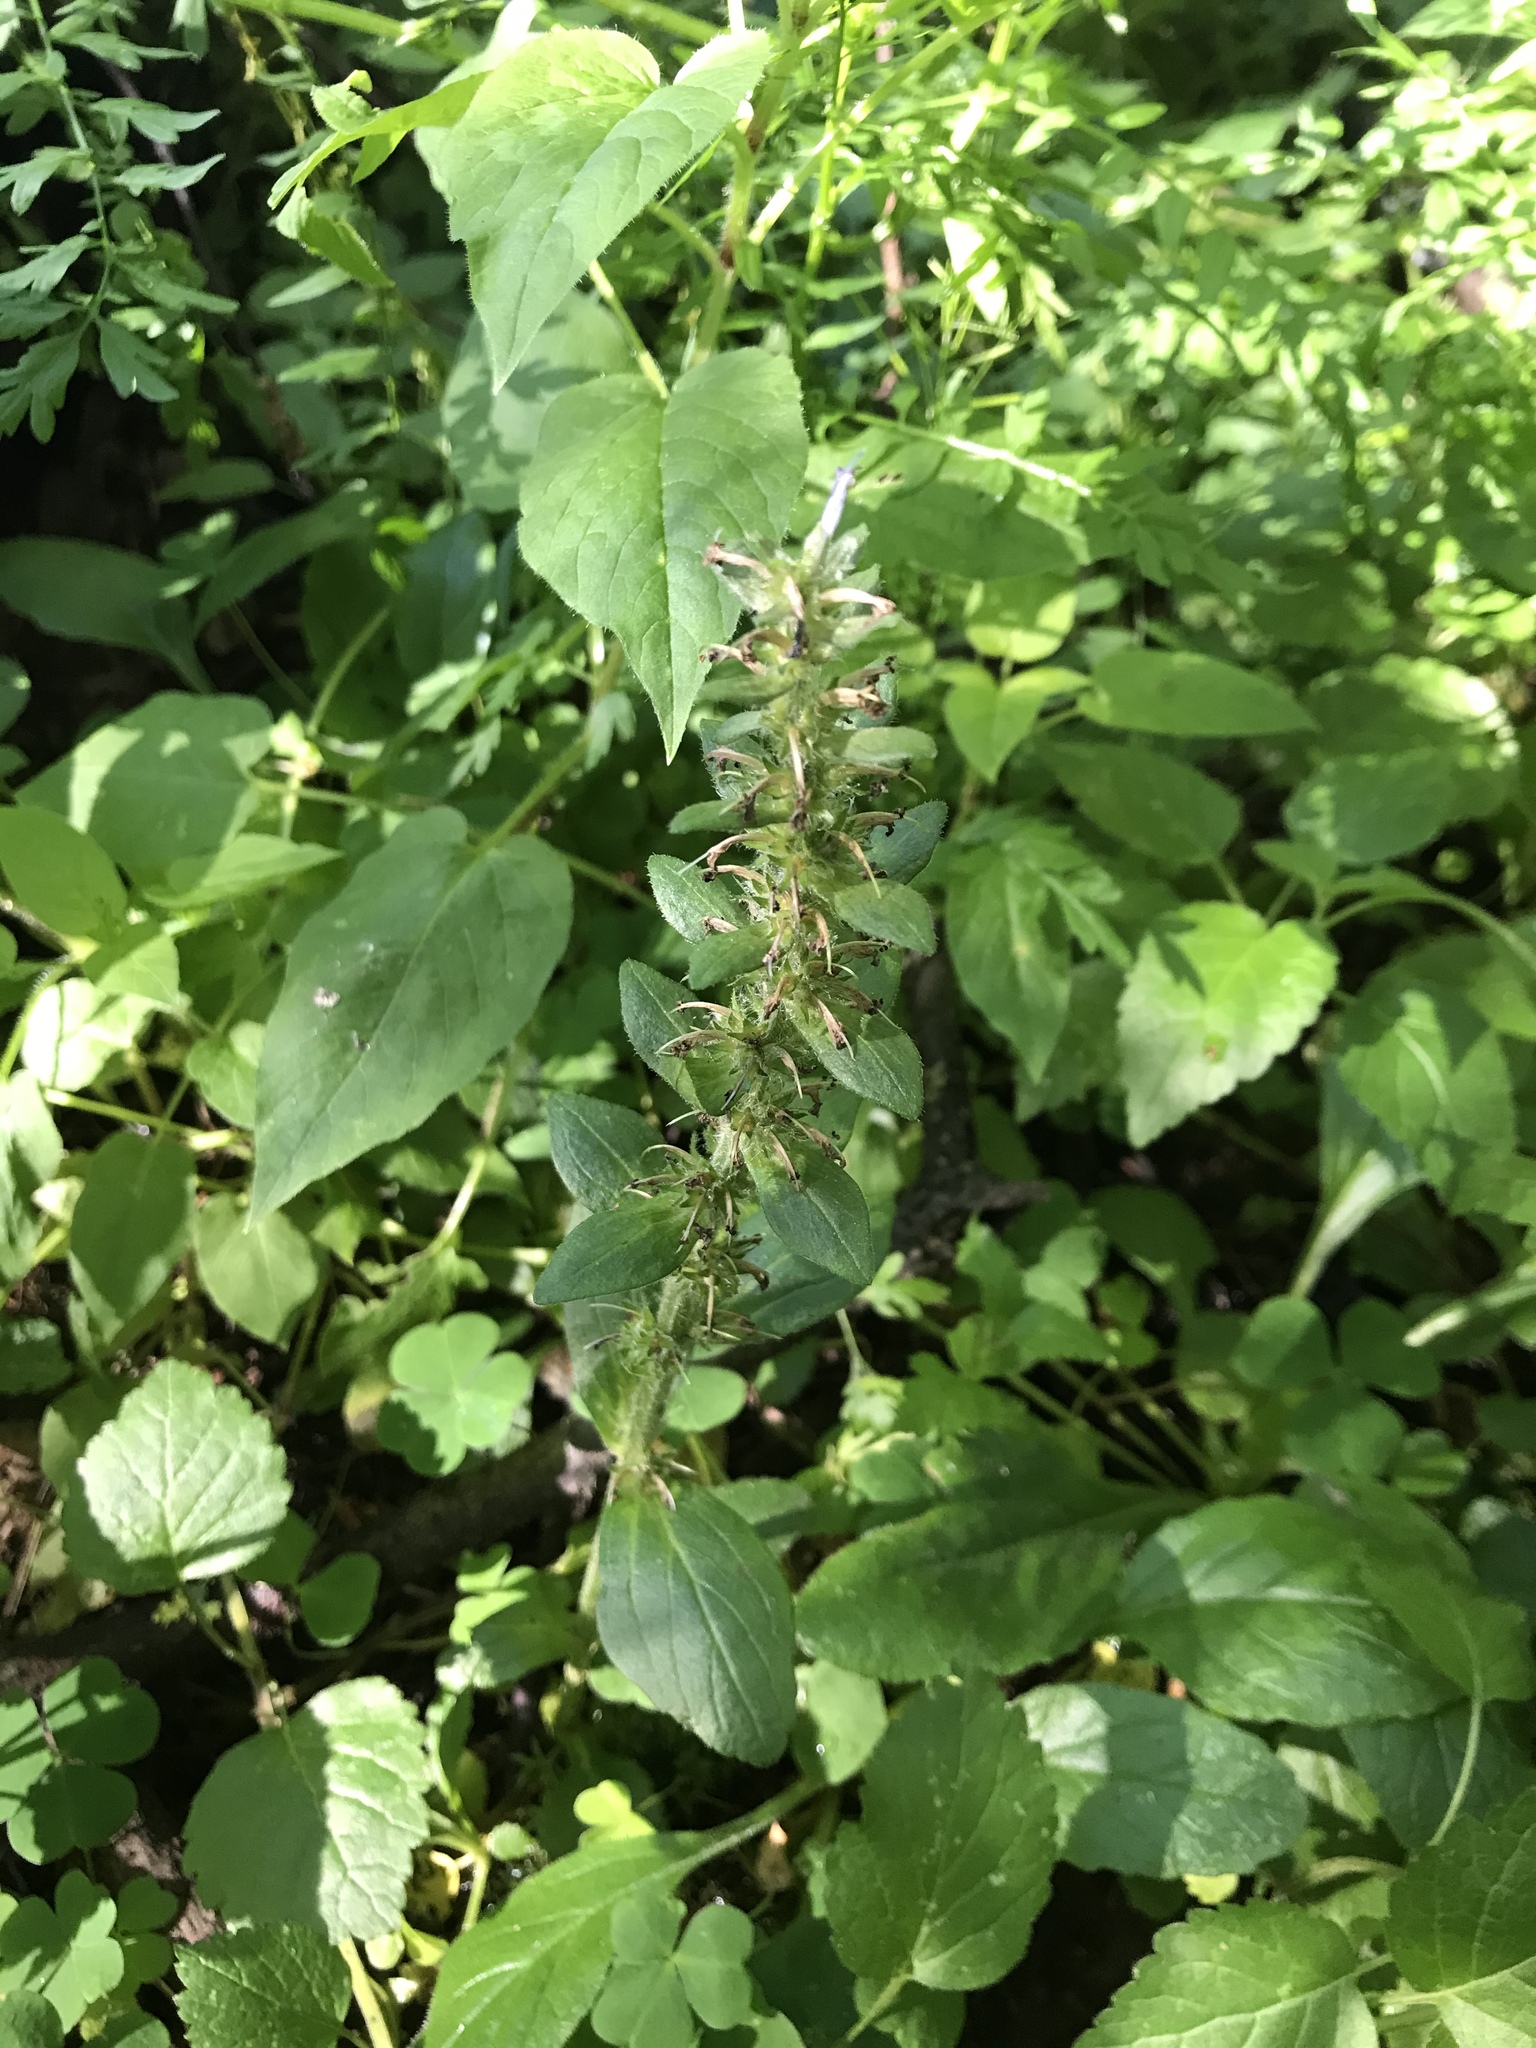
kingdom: Plantae
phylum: Tracheophyta
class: Magnoliopsida
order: Lamiales
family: Lamiaceae
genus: Ajuga
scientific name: Ajuga reptans
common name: Bugle
